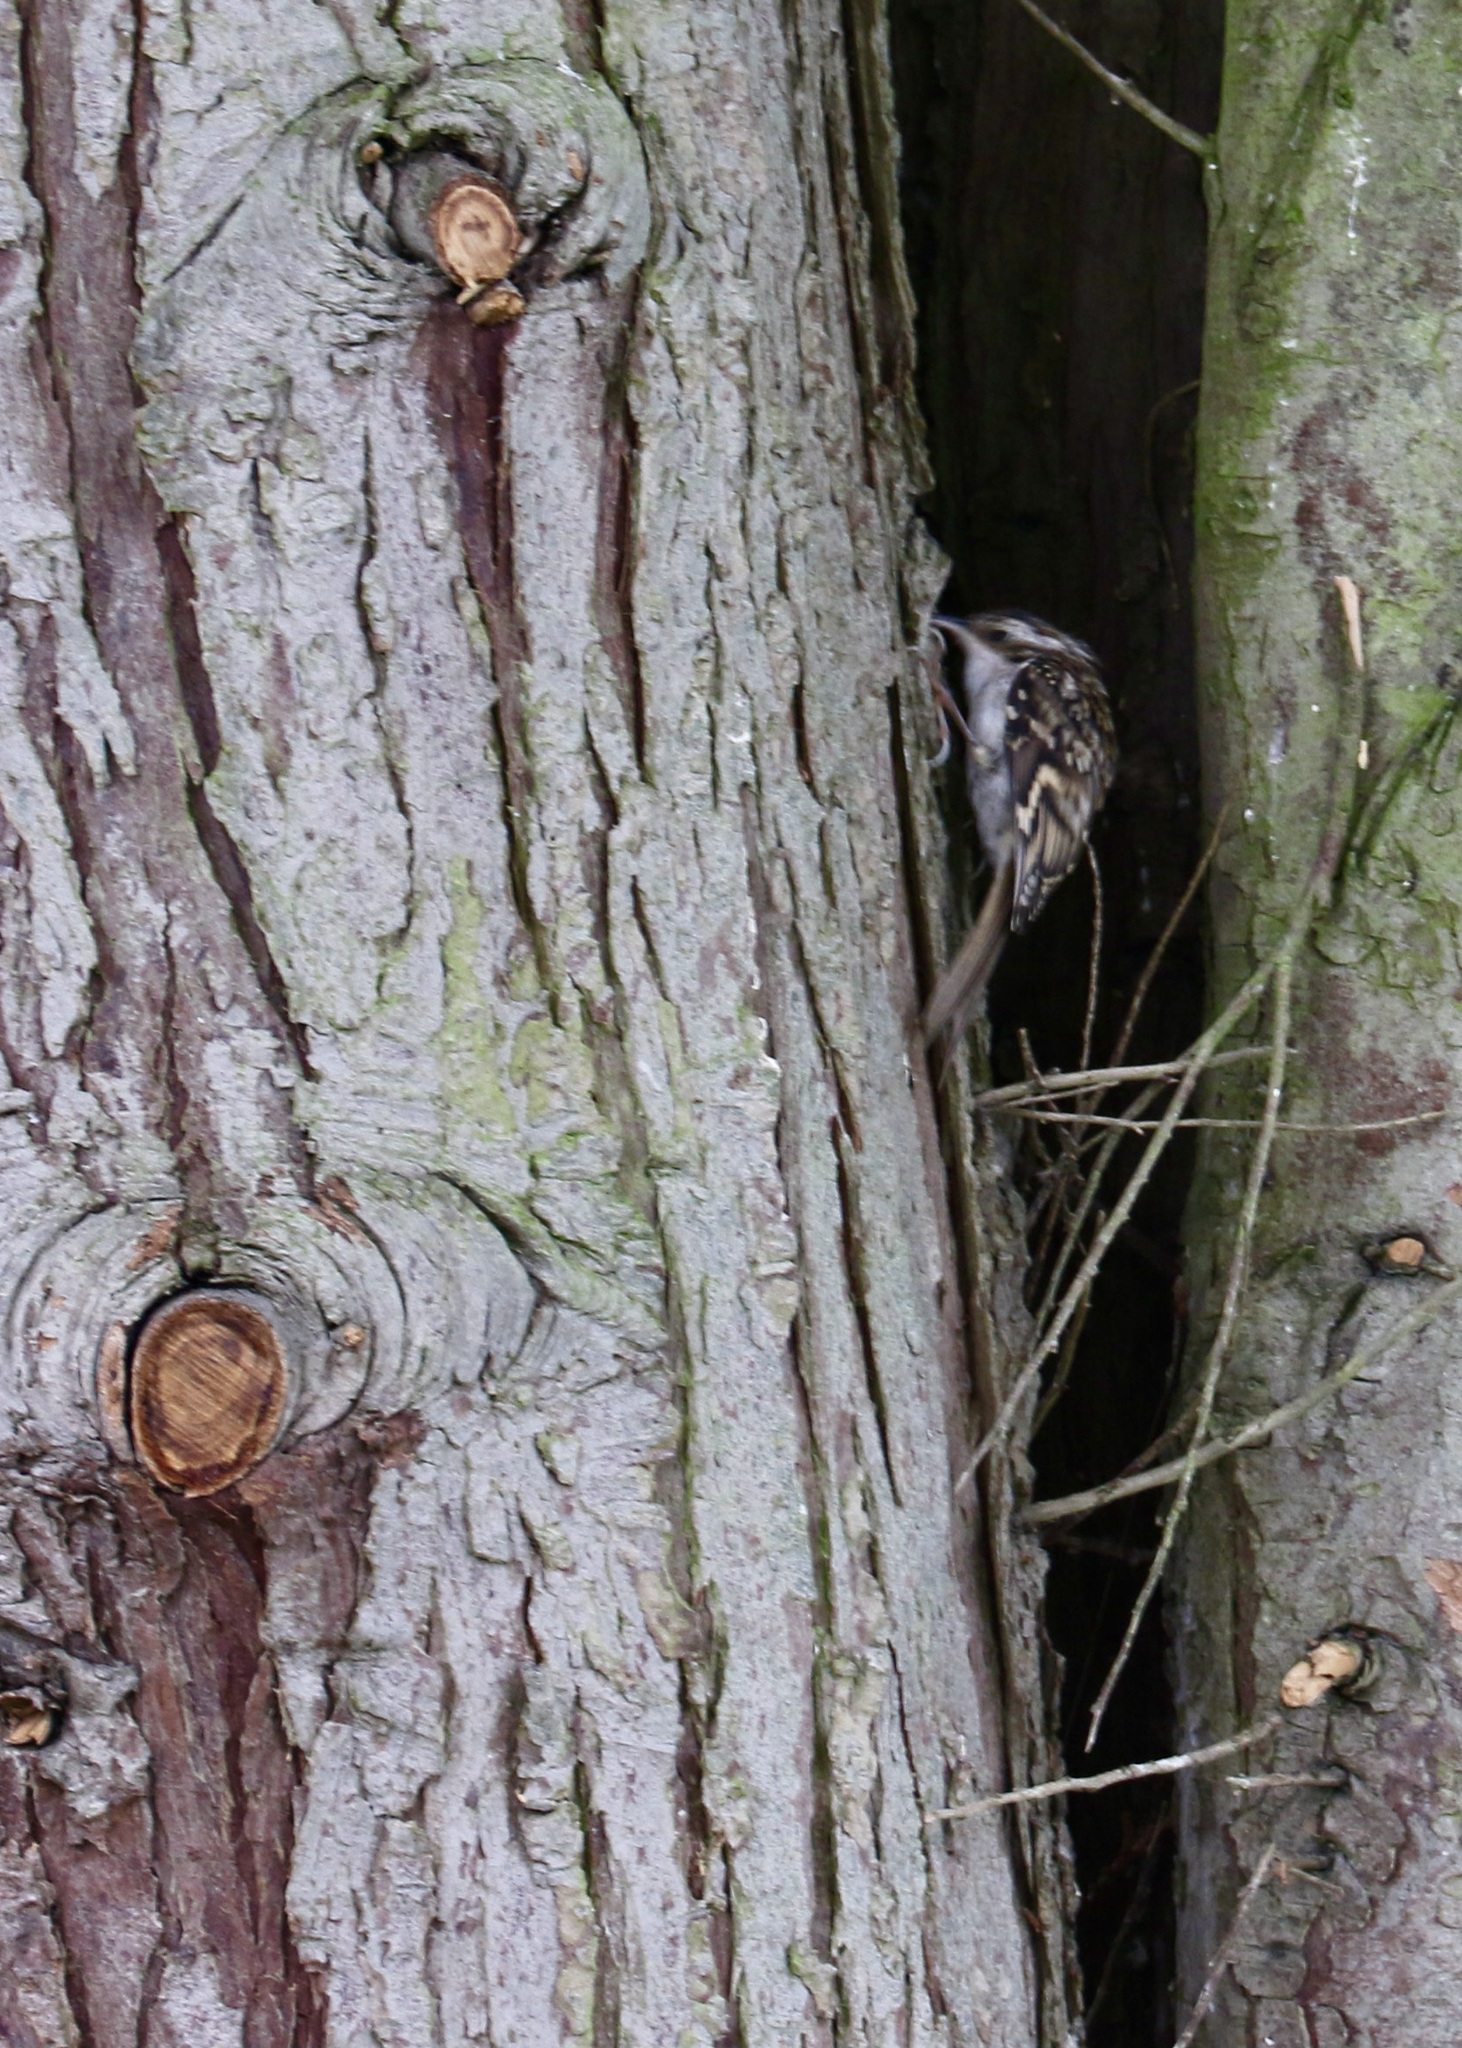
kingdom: Animalia
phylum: Chordata
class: Aves
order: Passeriformes
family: Certhiidae
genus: Certhia
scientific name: Certhia familiaris
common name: Eurasian treecreeper
